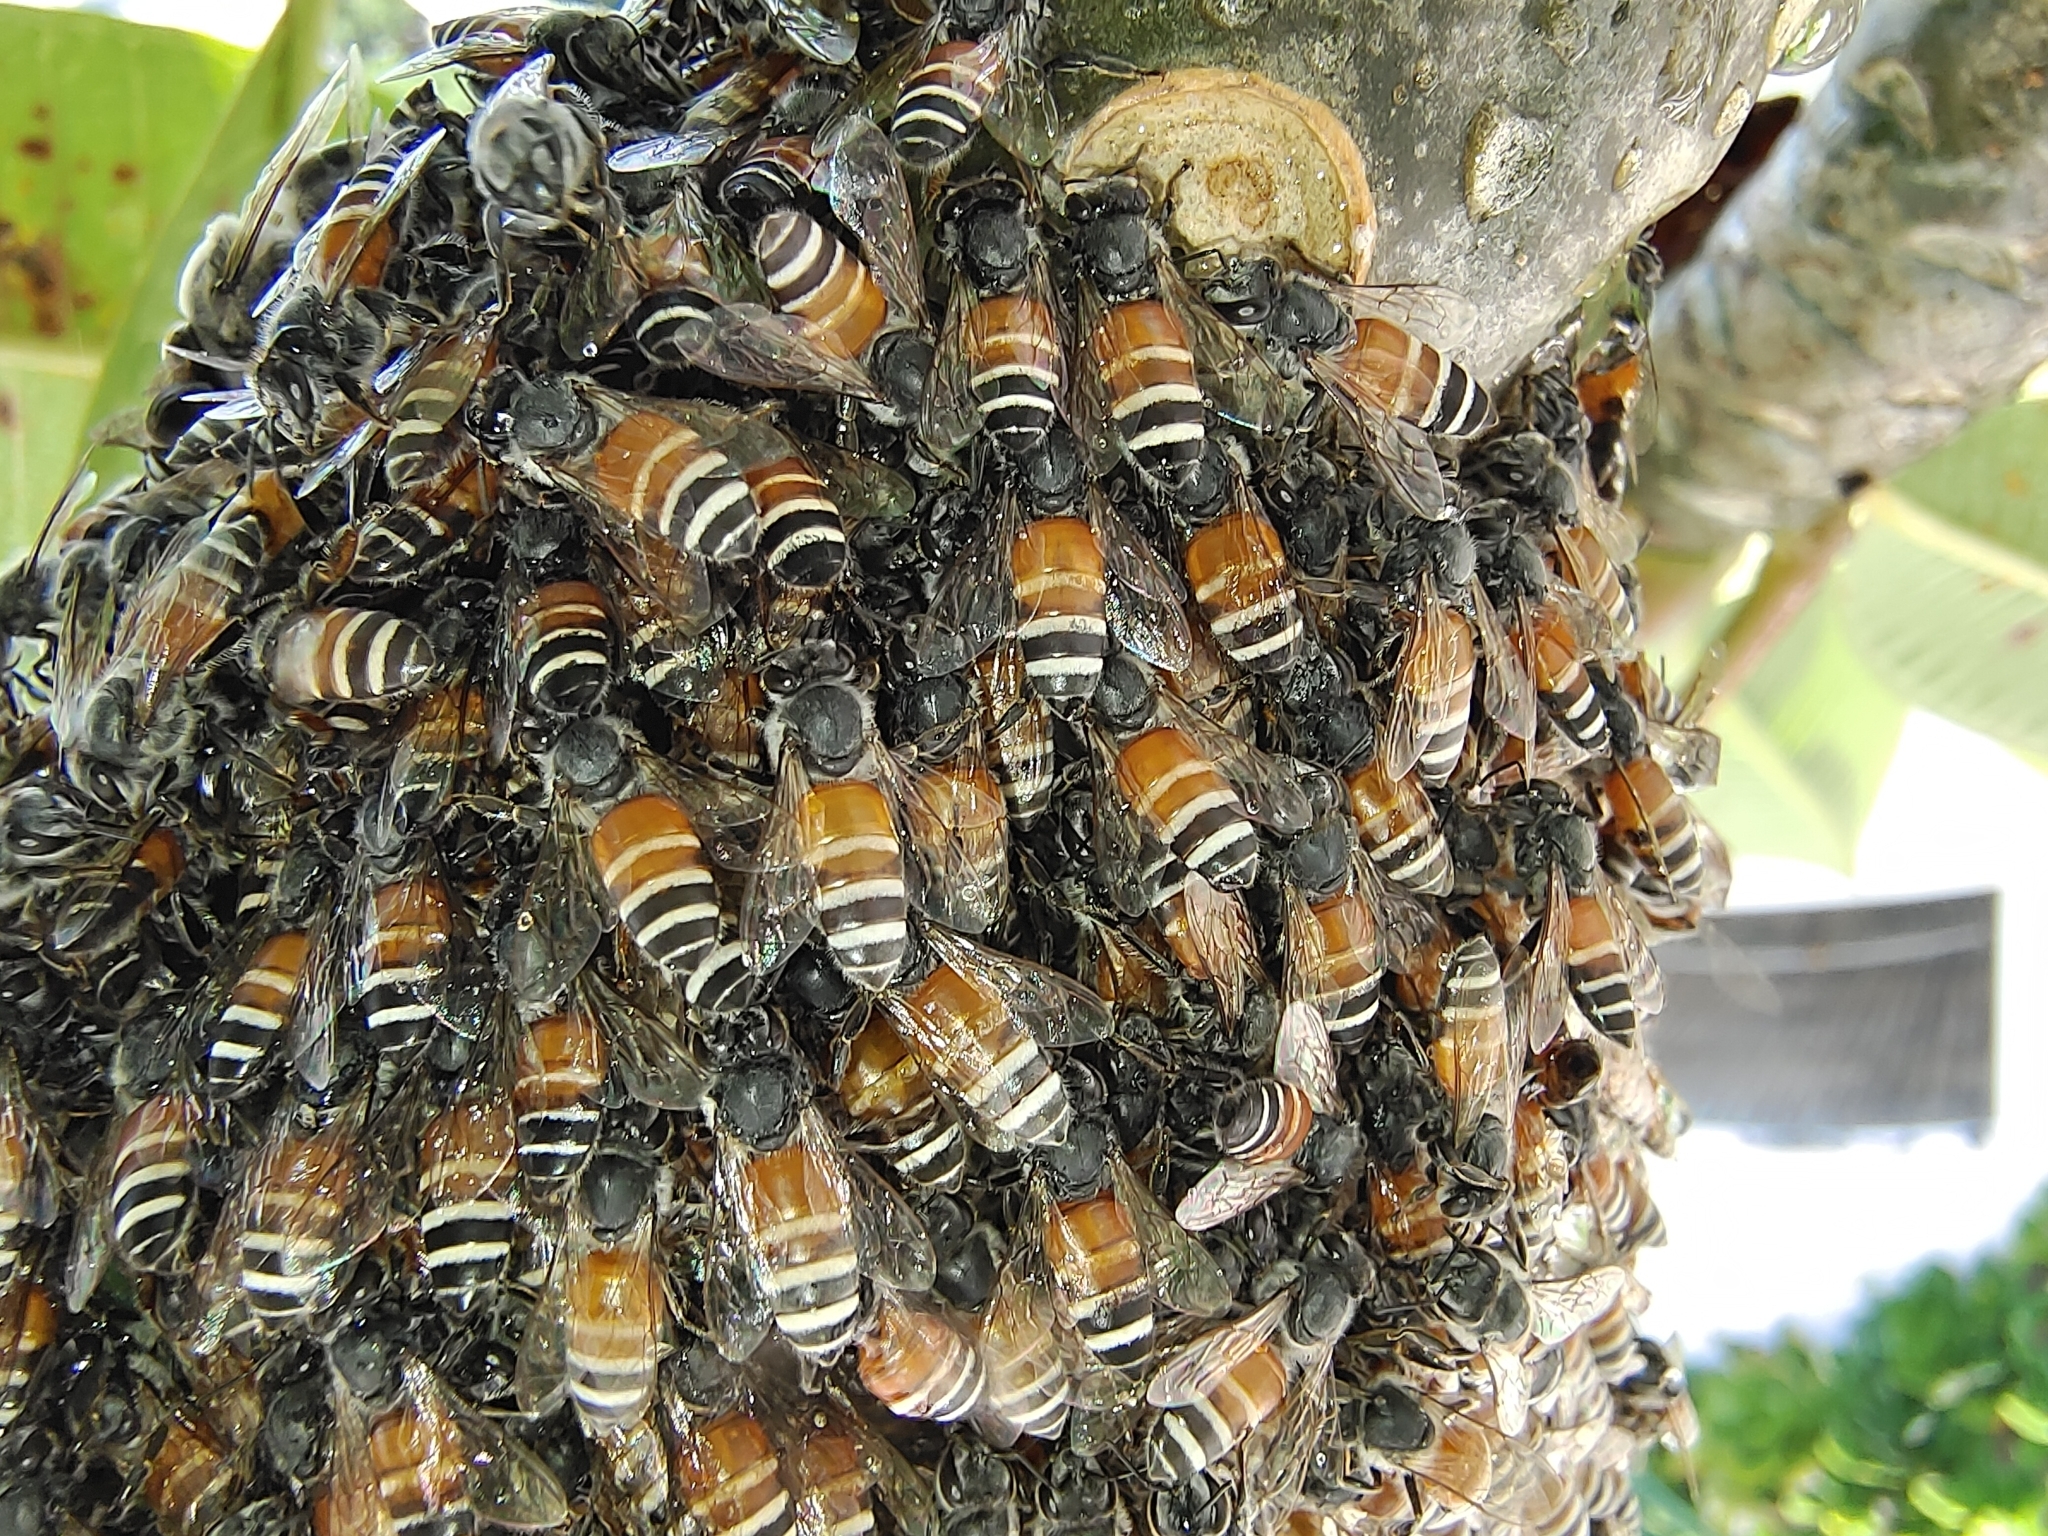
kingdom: Animalia
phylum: Arthropoda
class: Insecta
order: Hymenoptera
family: Apidae
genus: Apis
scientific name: Apis florea
